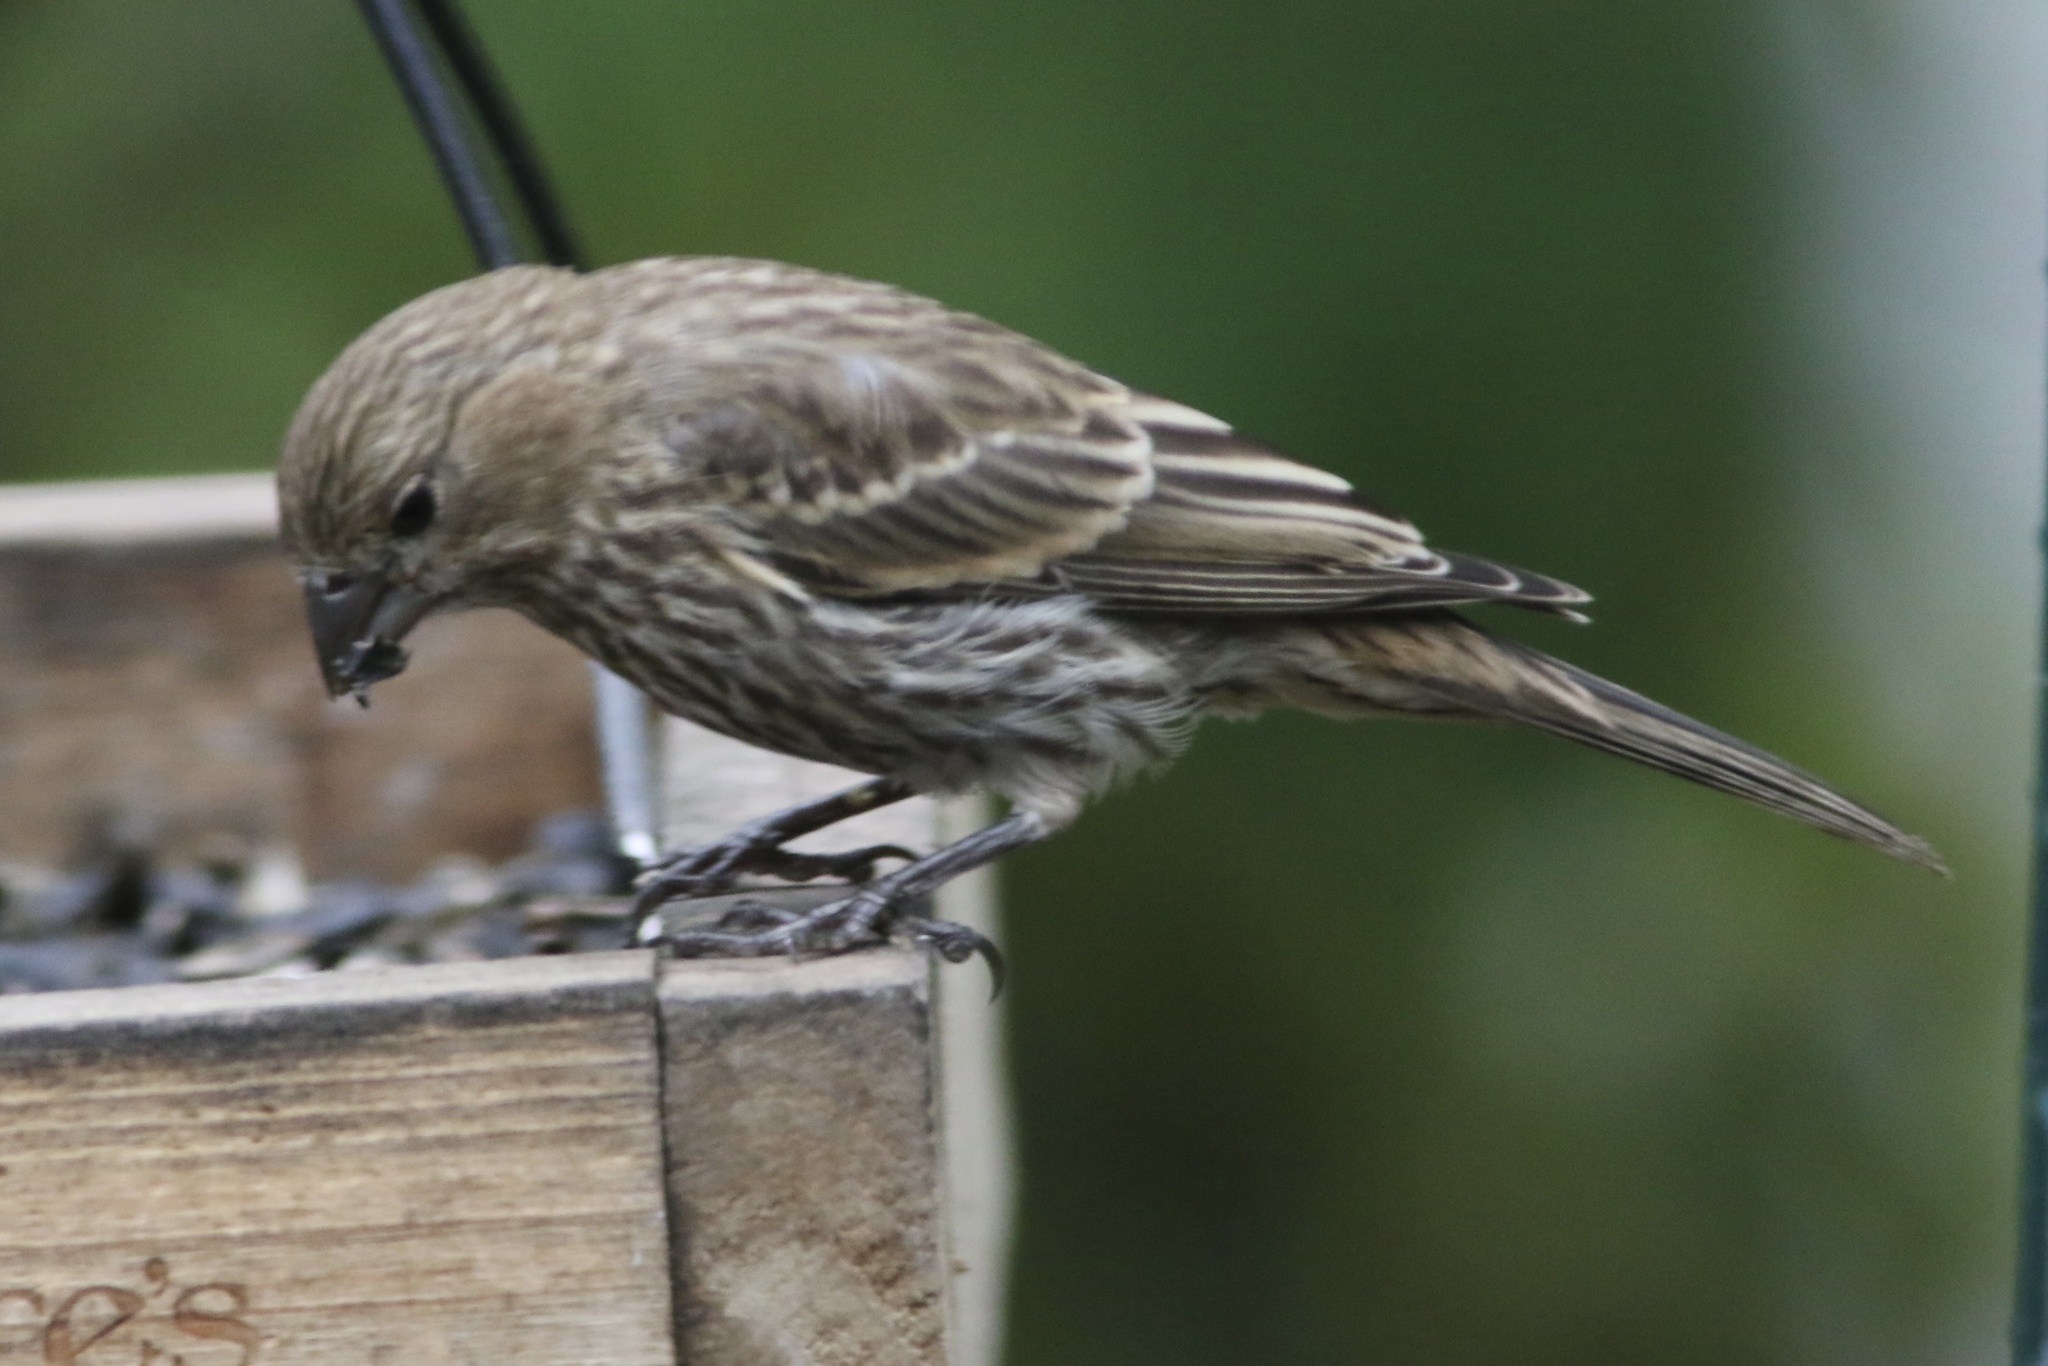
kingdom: Animalia
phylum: Chordata
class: Aves
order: Passeriformes
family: Fringillidae
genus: Haemorhous
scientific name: Haemorhous mexicanus
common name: House finch
